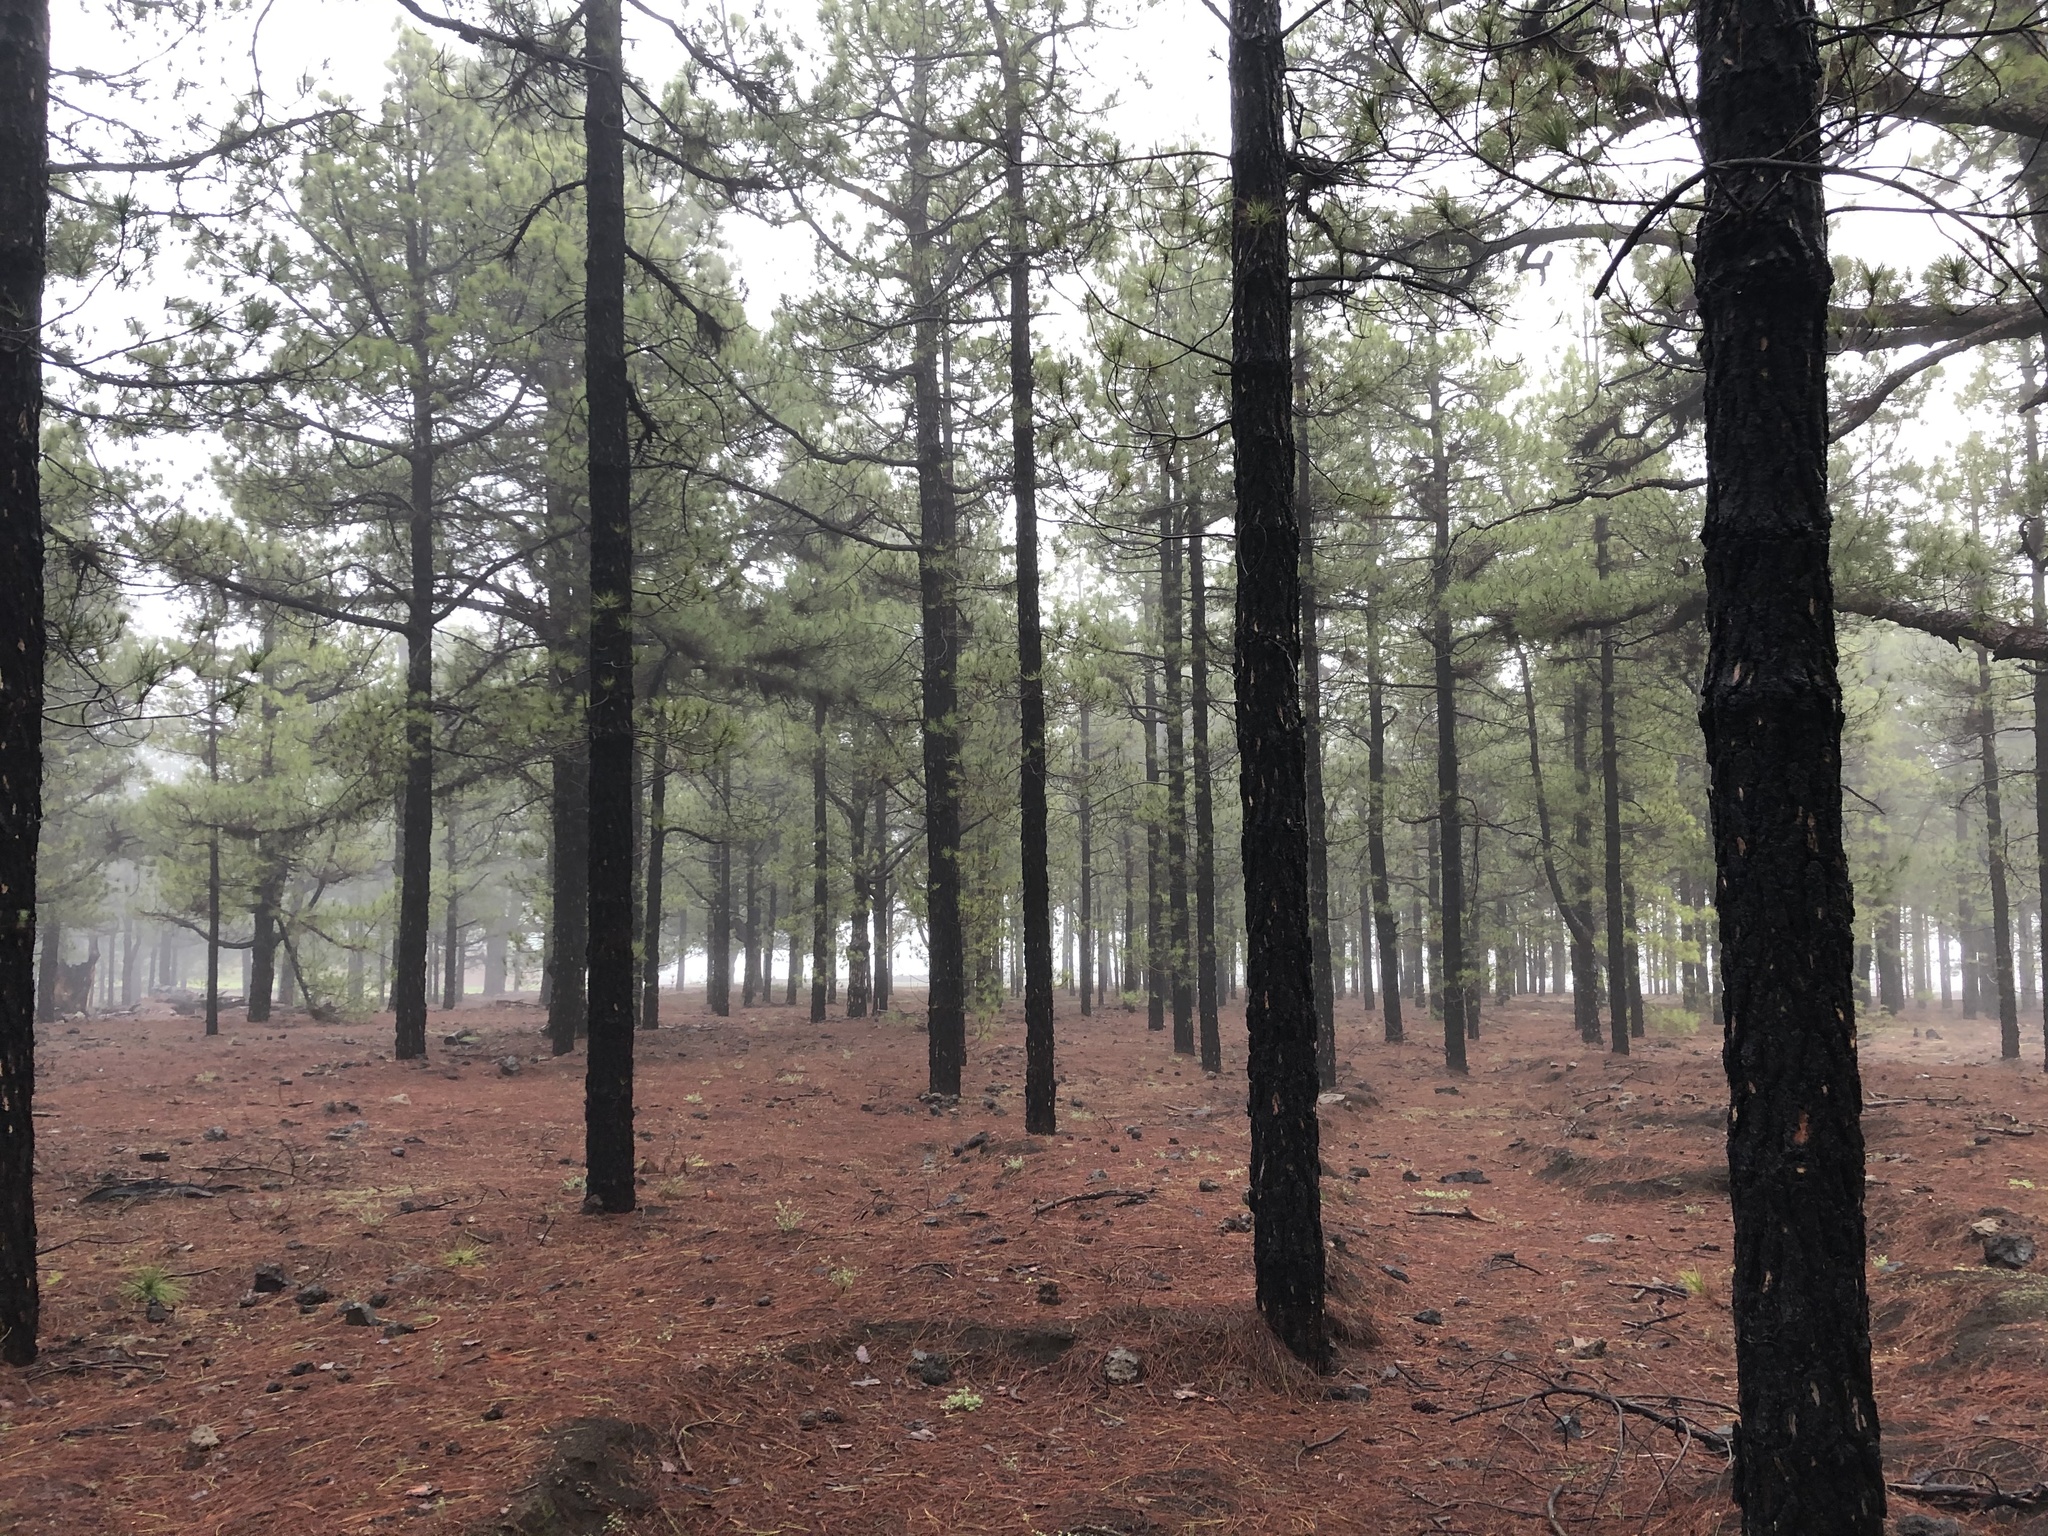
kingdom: Plantae
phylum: Tracheophyta
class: Pinopsida
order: Pinales
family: Pinaceae
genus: Pinus
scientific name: Pinus canariensis
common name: Canary islands pine
